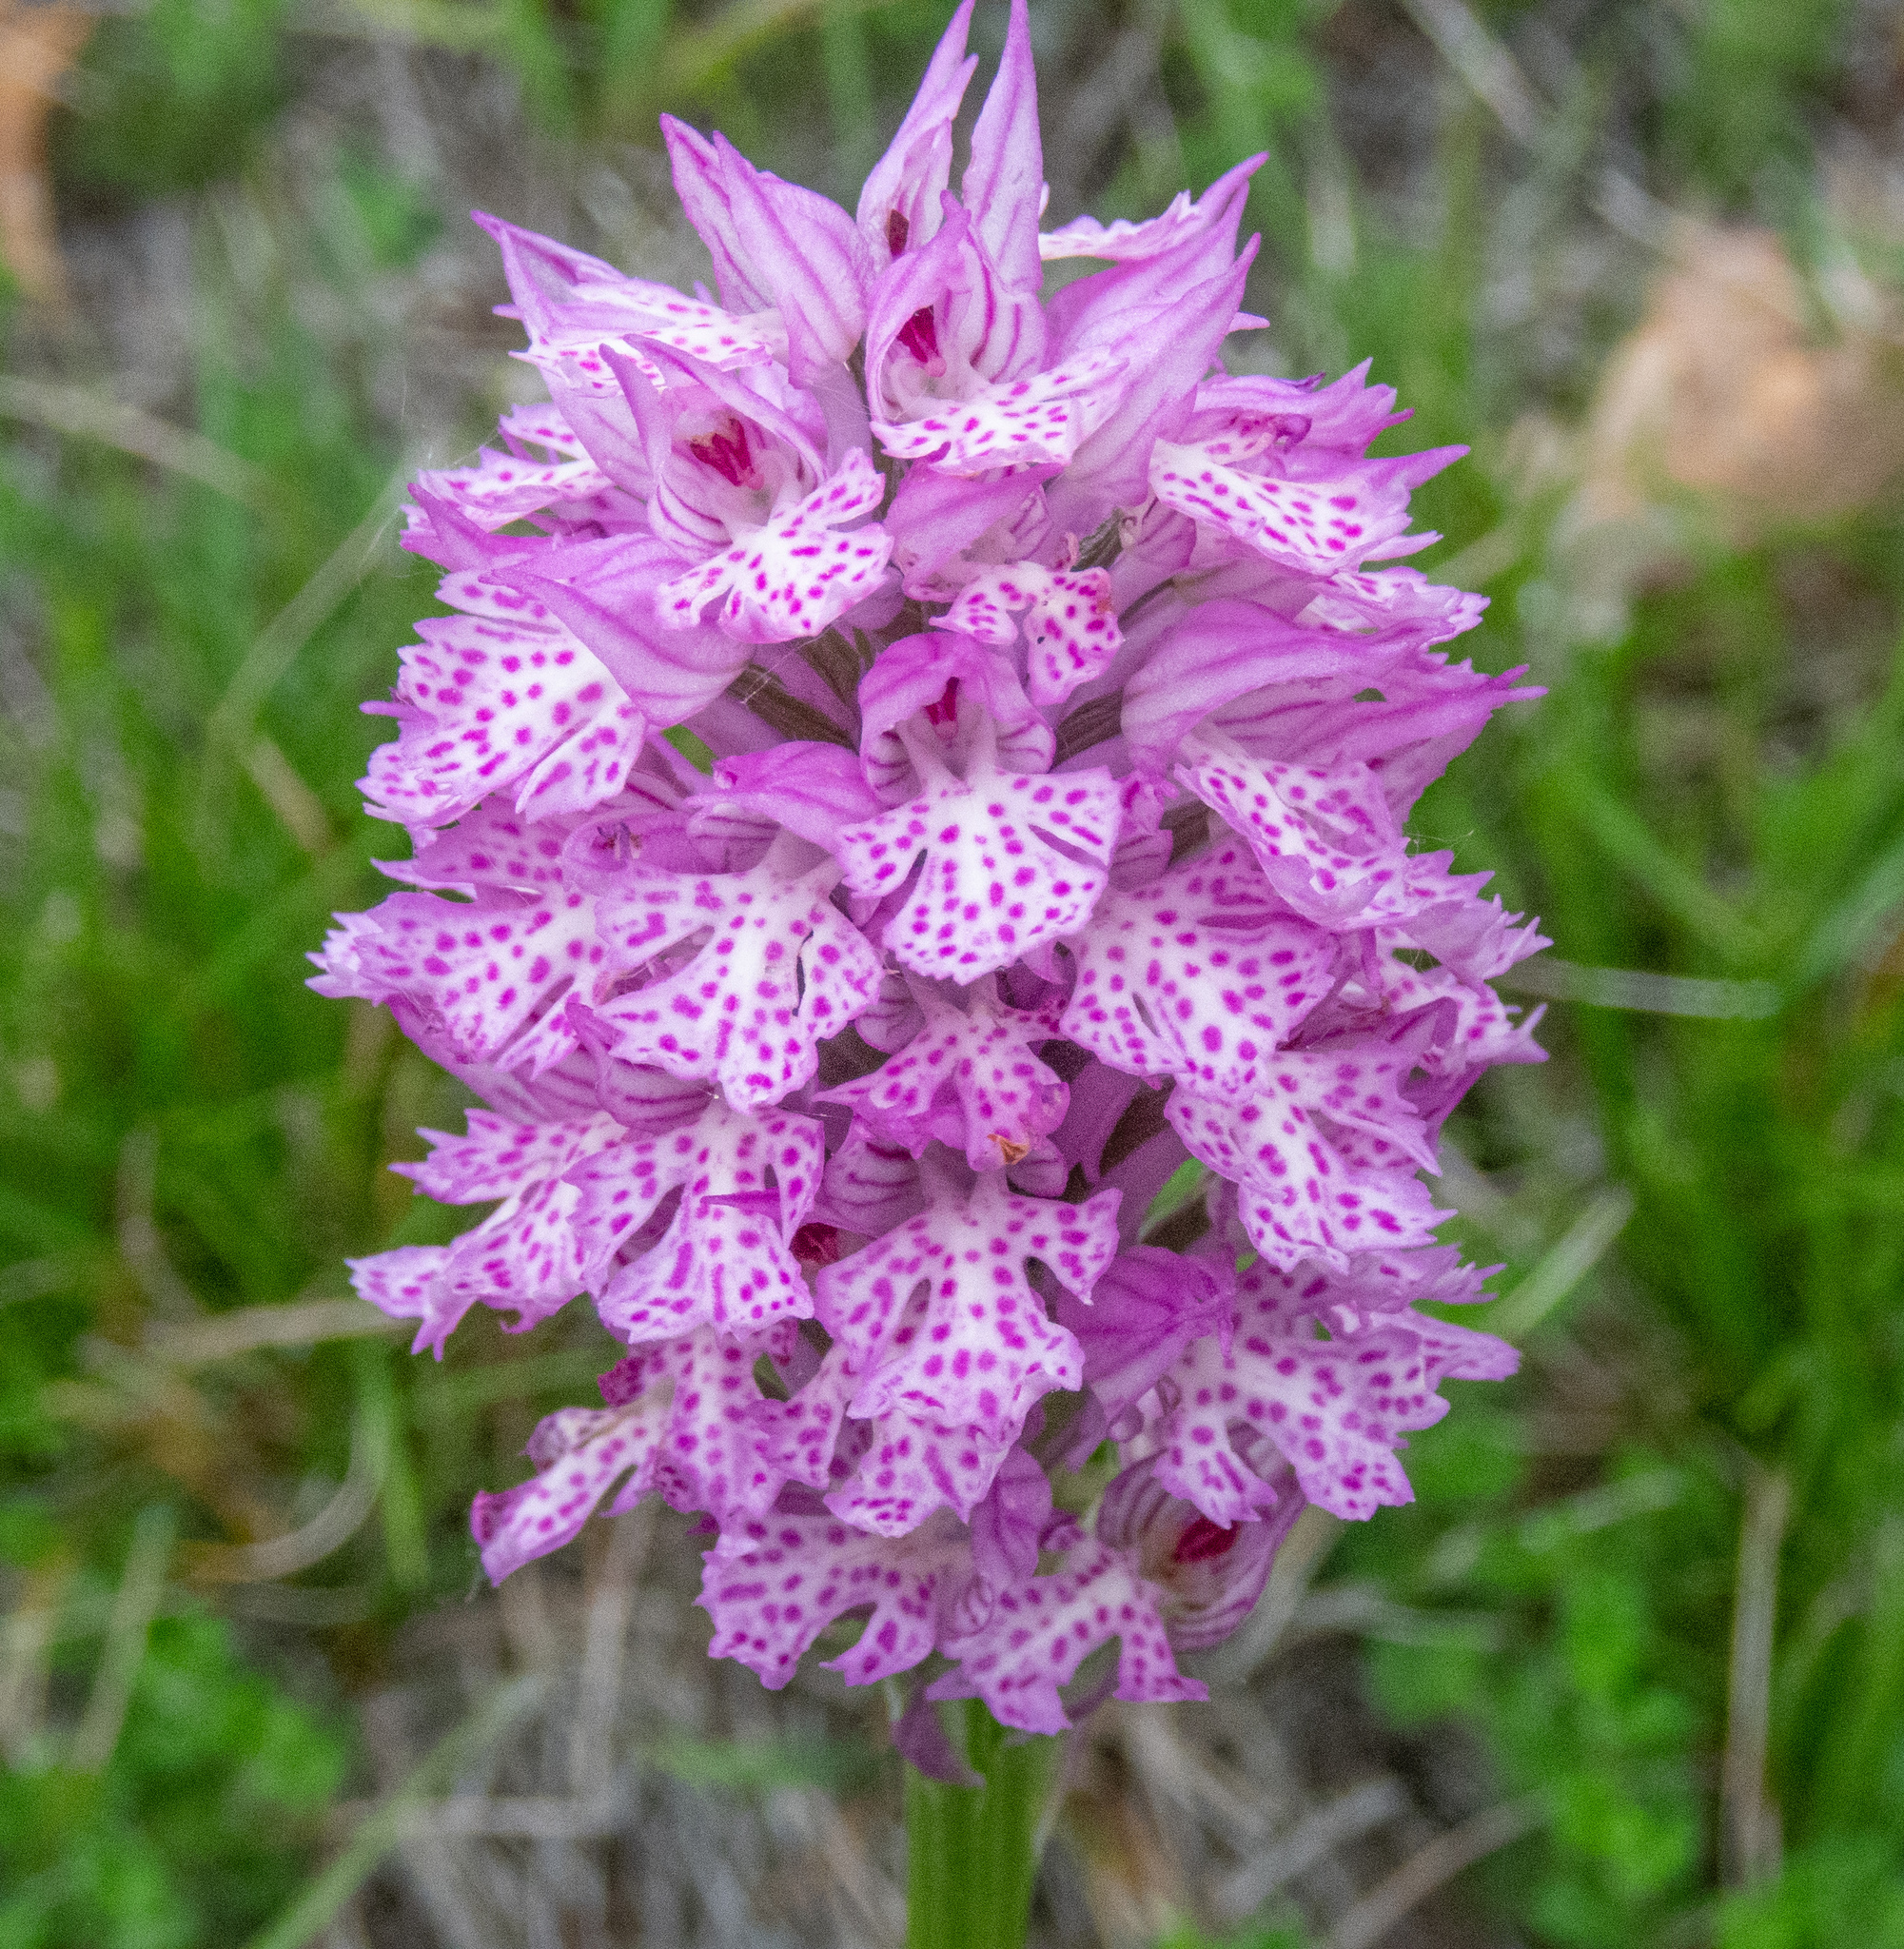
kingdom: Plantae
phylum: Tracheophyta
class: Liliopsida
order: Asparagales
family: Orchidaceae
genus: Neotinea
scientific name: Neotinea tridentata
